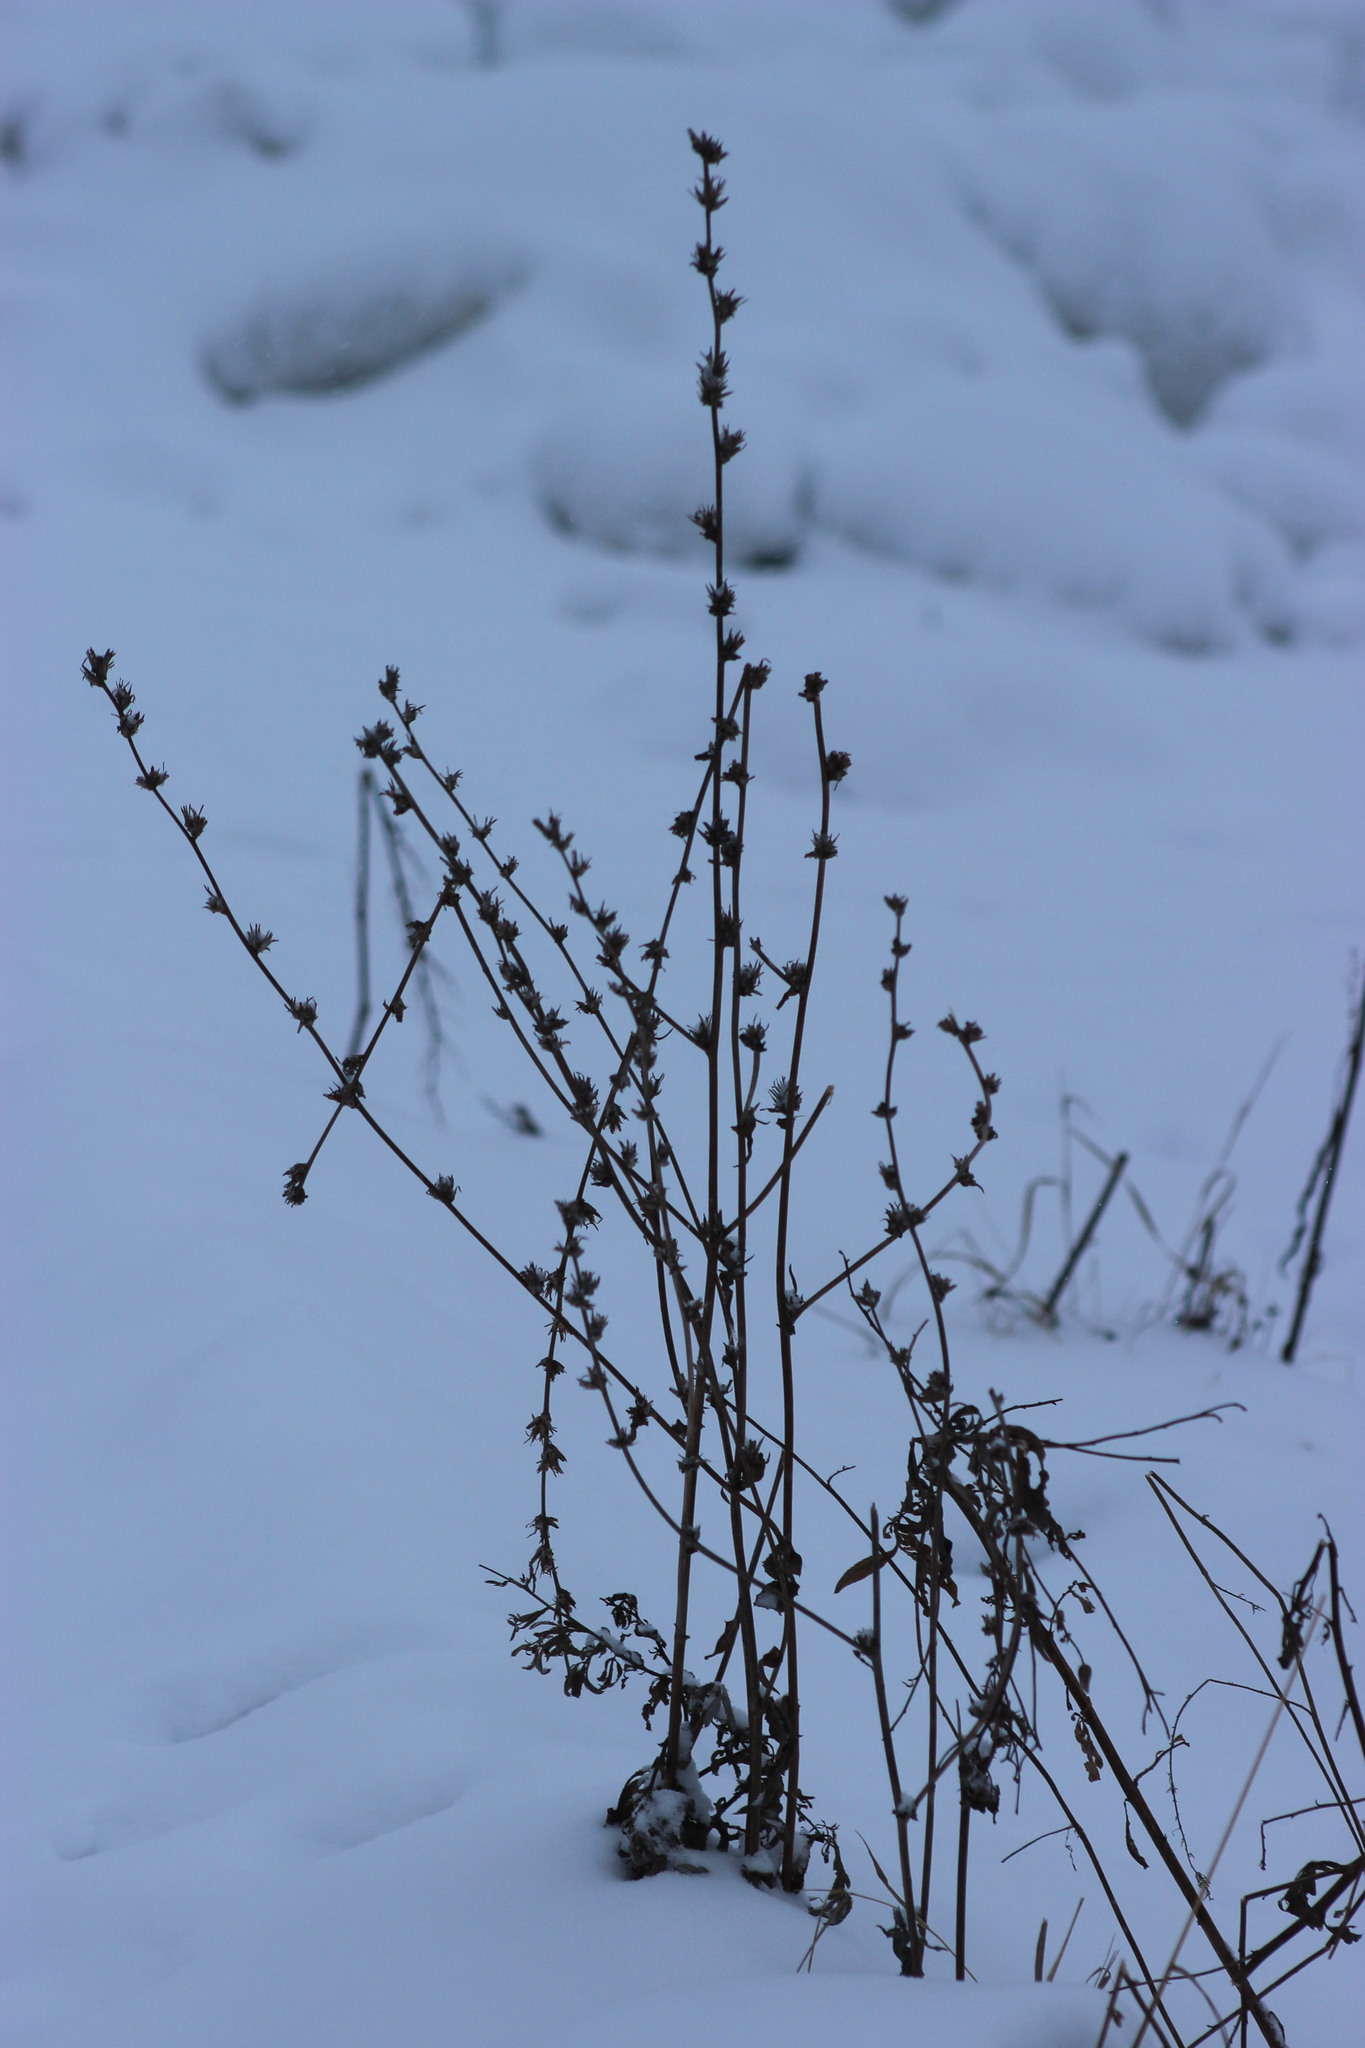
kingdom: Plantae
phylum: Tracheophyta
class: Magnoliopsida
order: Asterales
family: Asteraceae
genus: Cichorium
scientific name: Cichorium intybus
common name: Chicory
